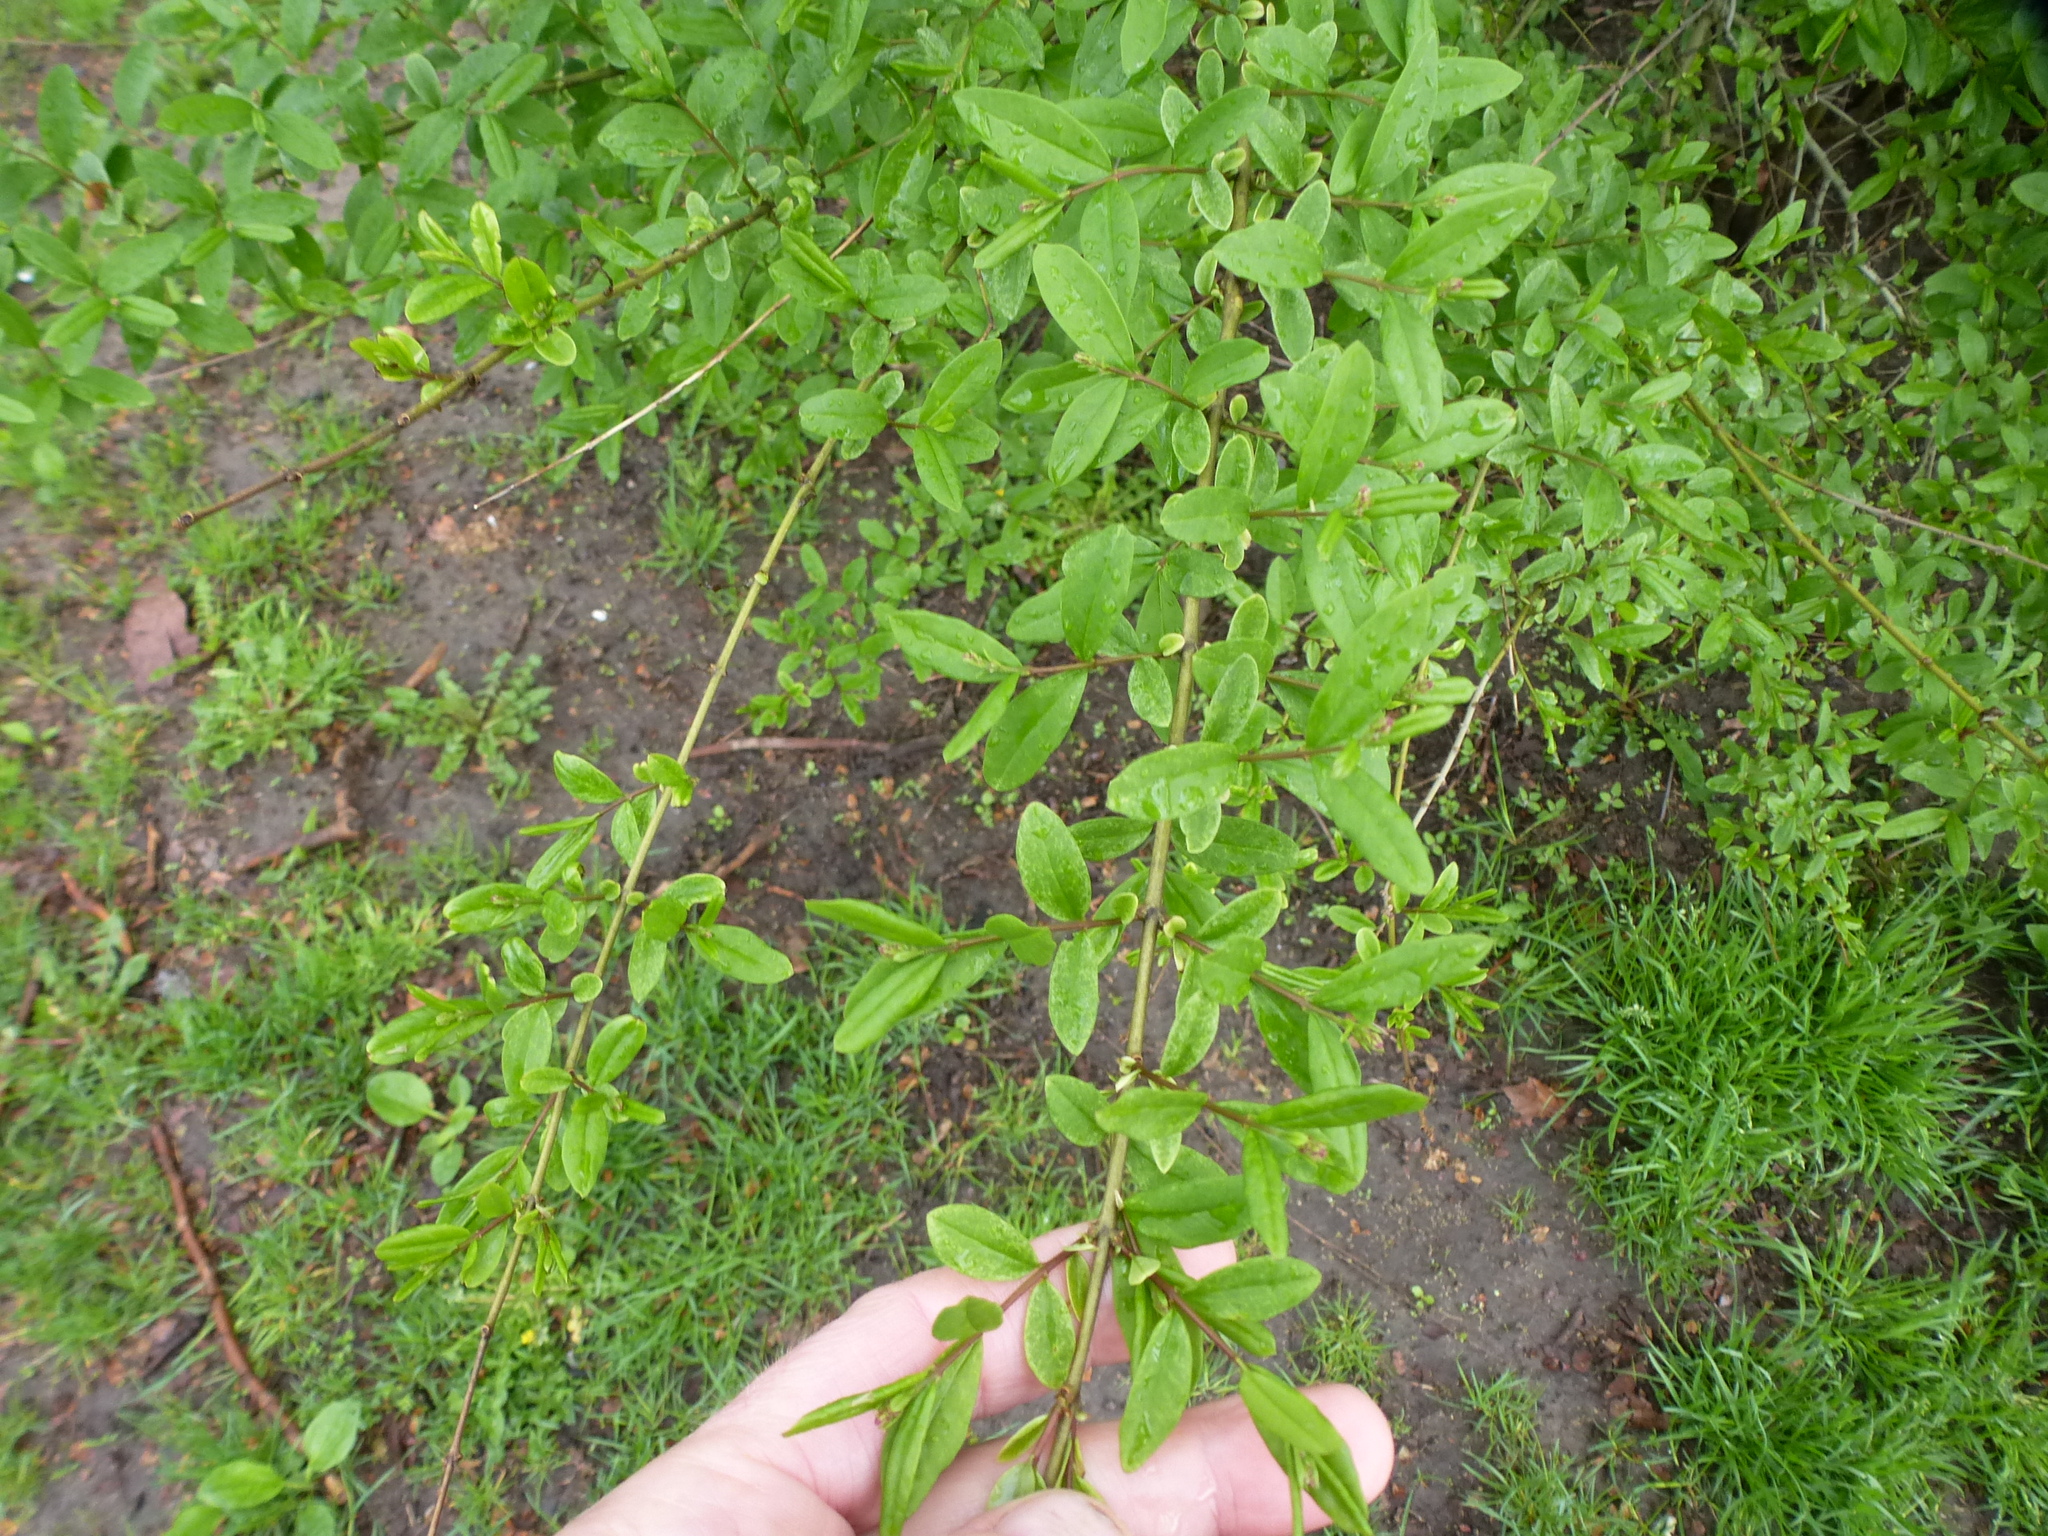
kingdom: Plantae
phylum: Tracheophyta
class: Magnoliopsida
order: Lamiales
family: Oleaceae
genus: Ligustrum
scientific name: Ligustrum obtusifolium
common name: Border privet
